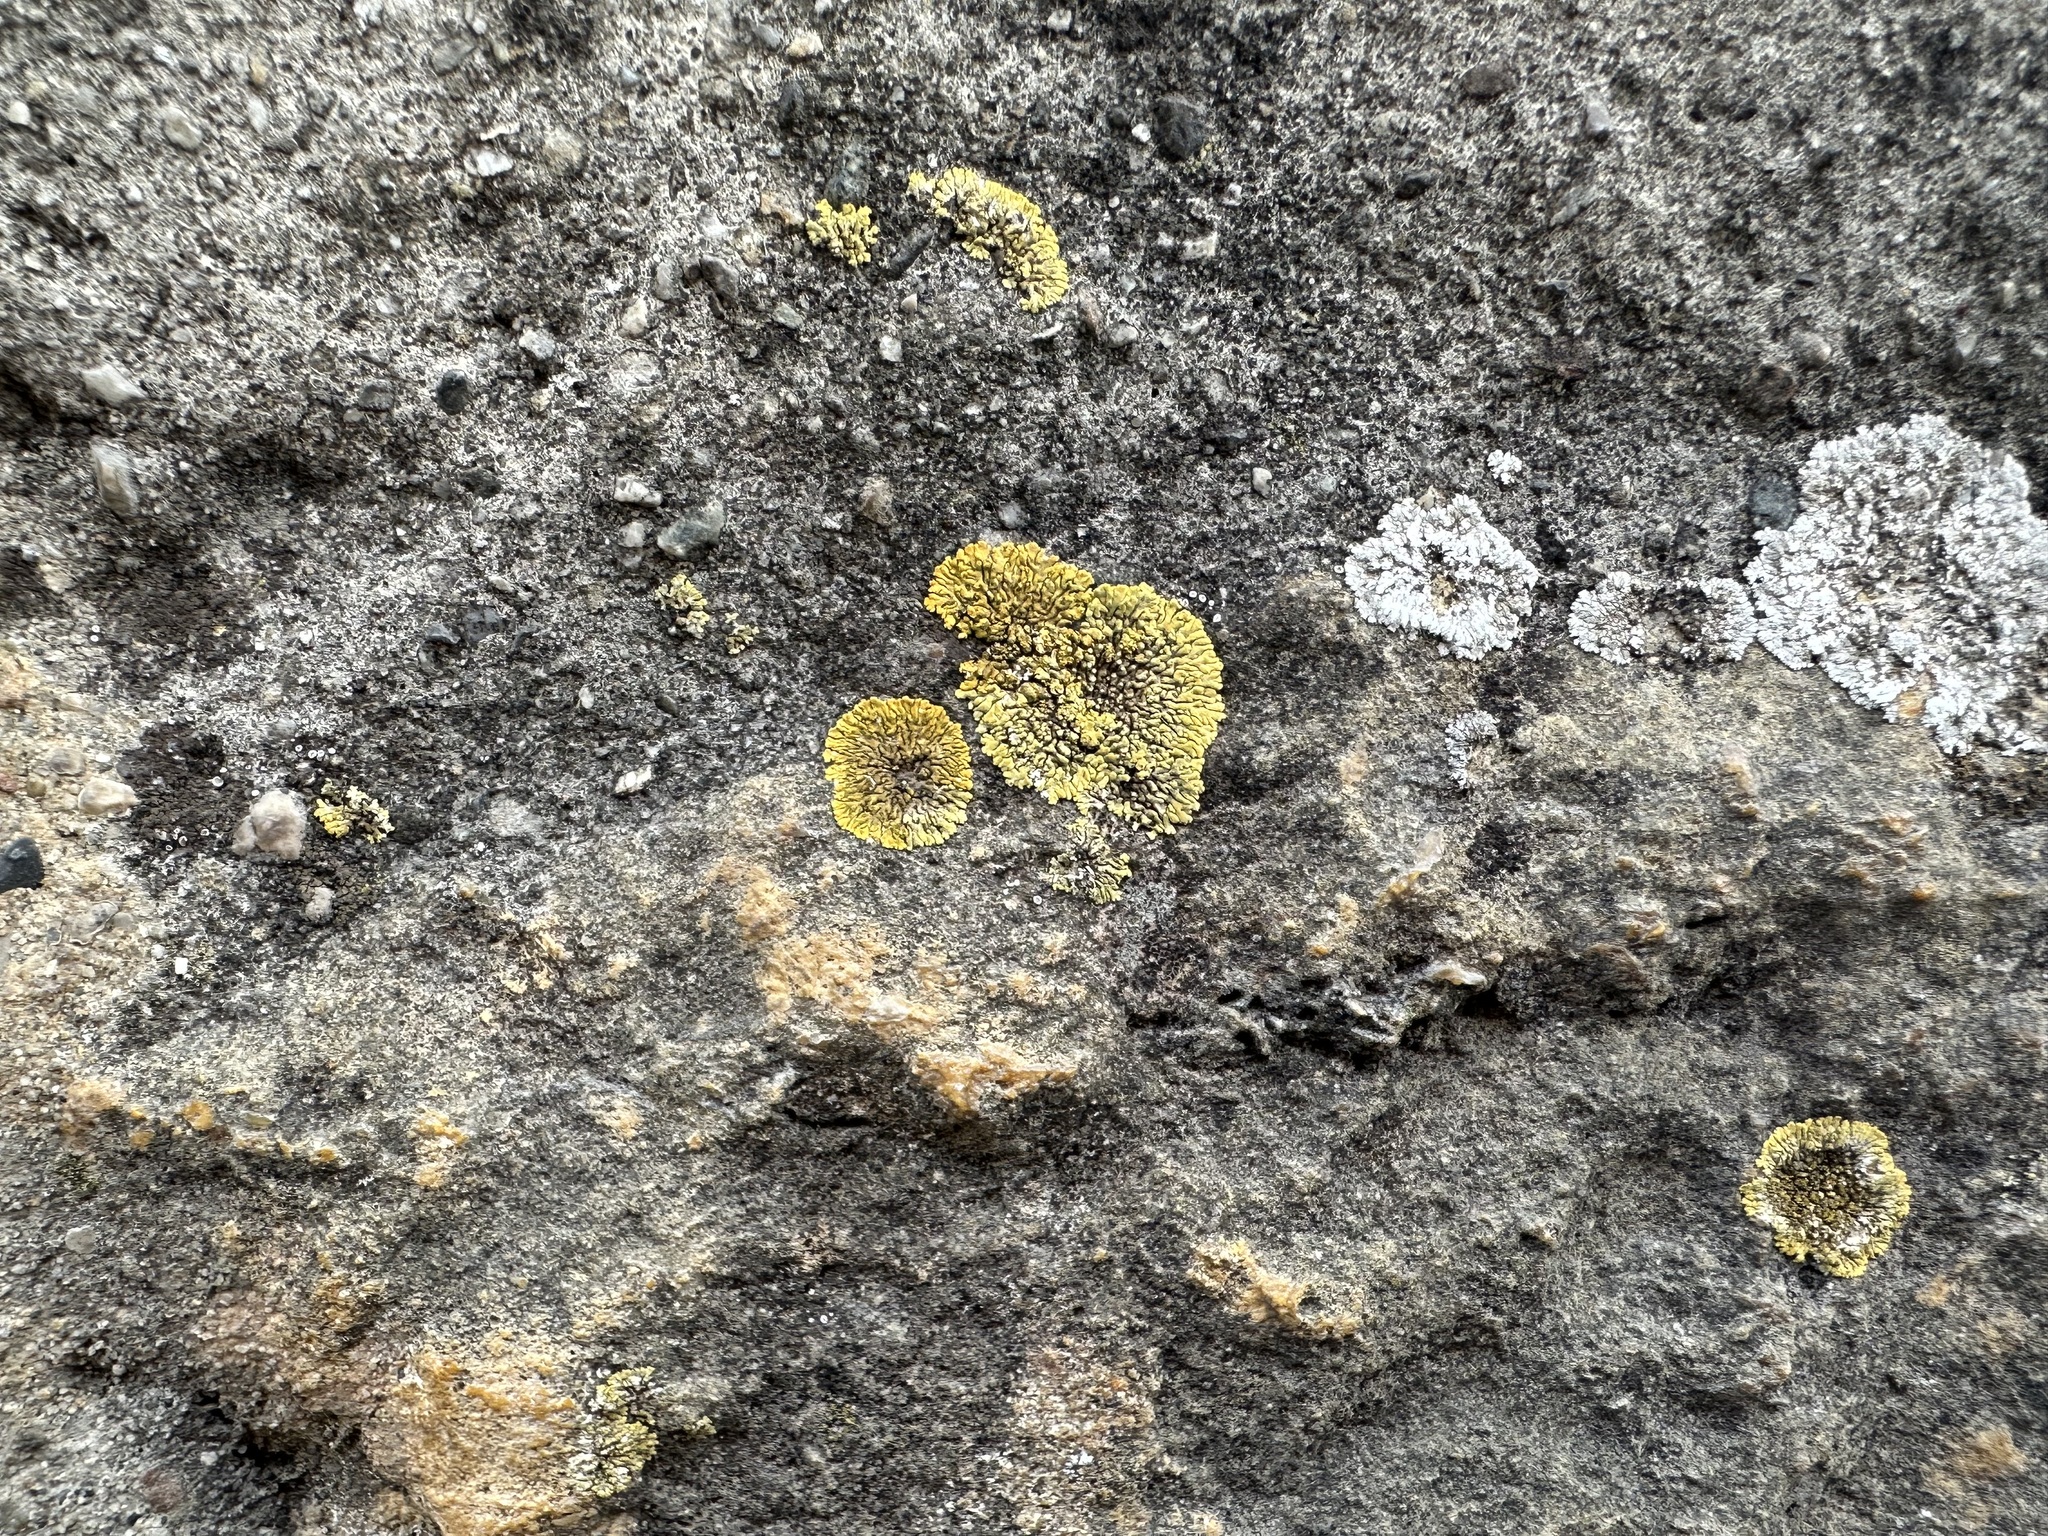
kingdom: Fungi
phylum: Ascomycota
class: Lecanoromycetes
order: Teloschistales
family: Teloschistaceae
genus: Calogaya
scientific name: Calogaya decipiens
